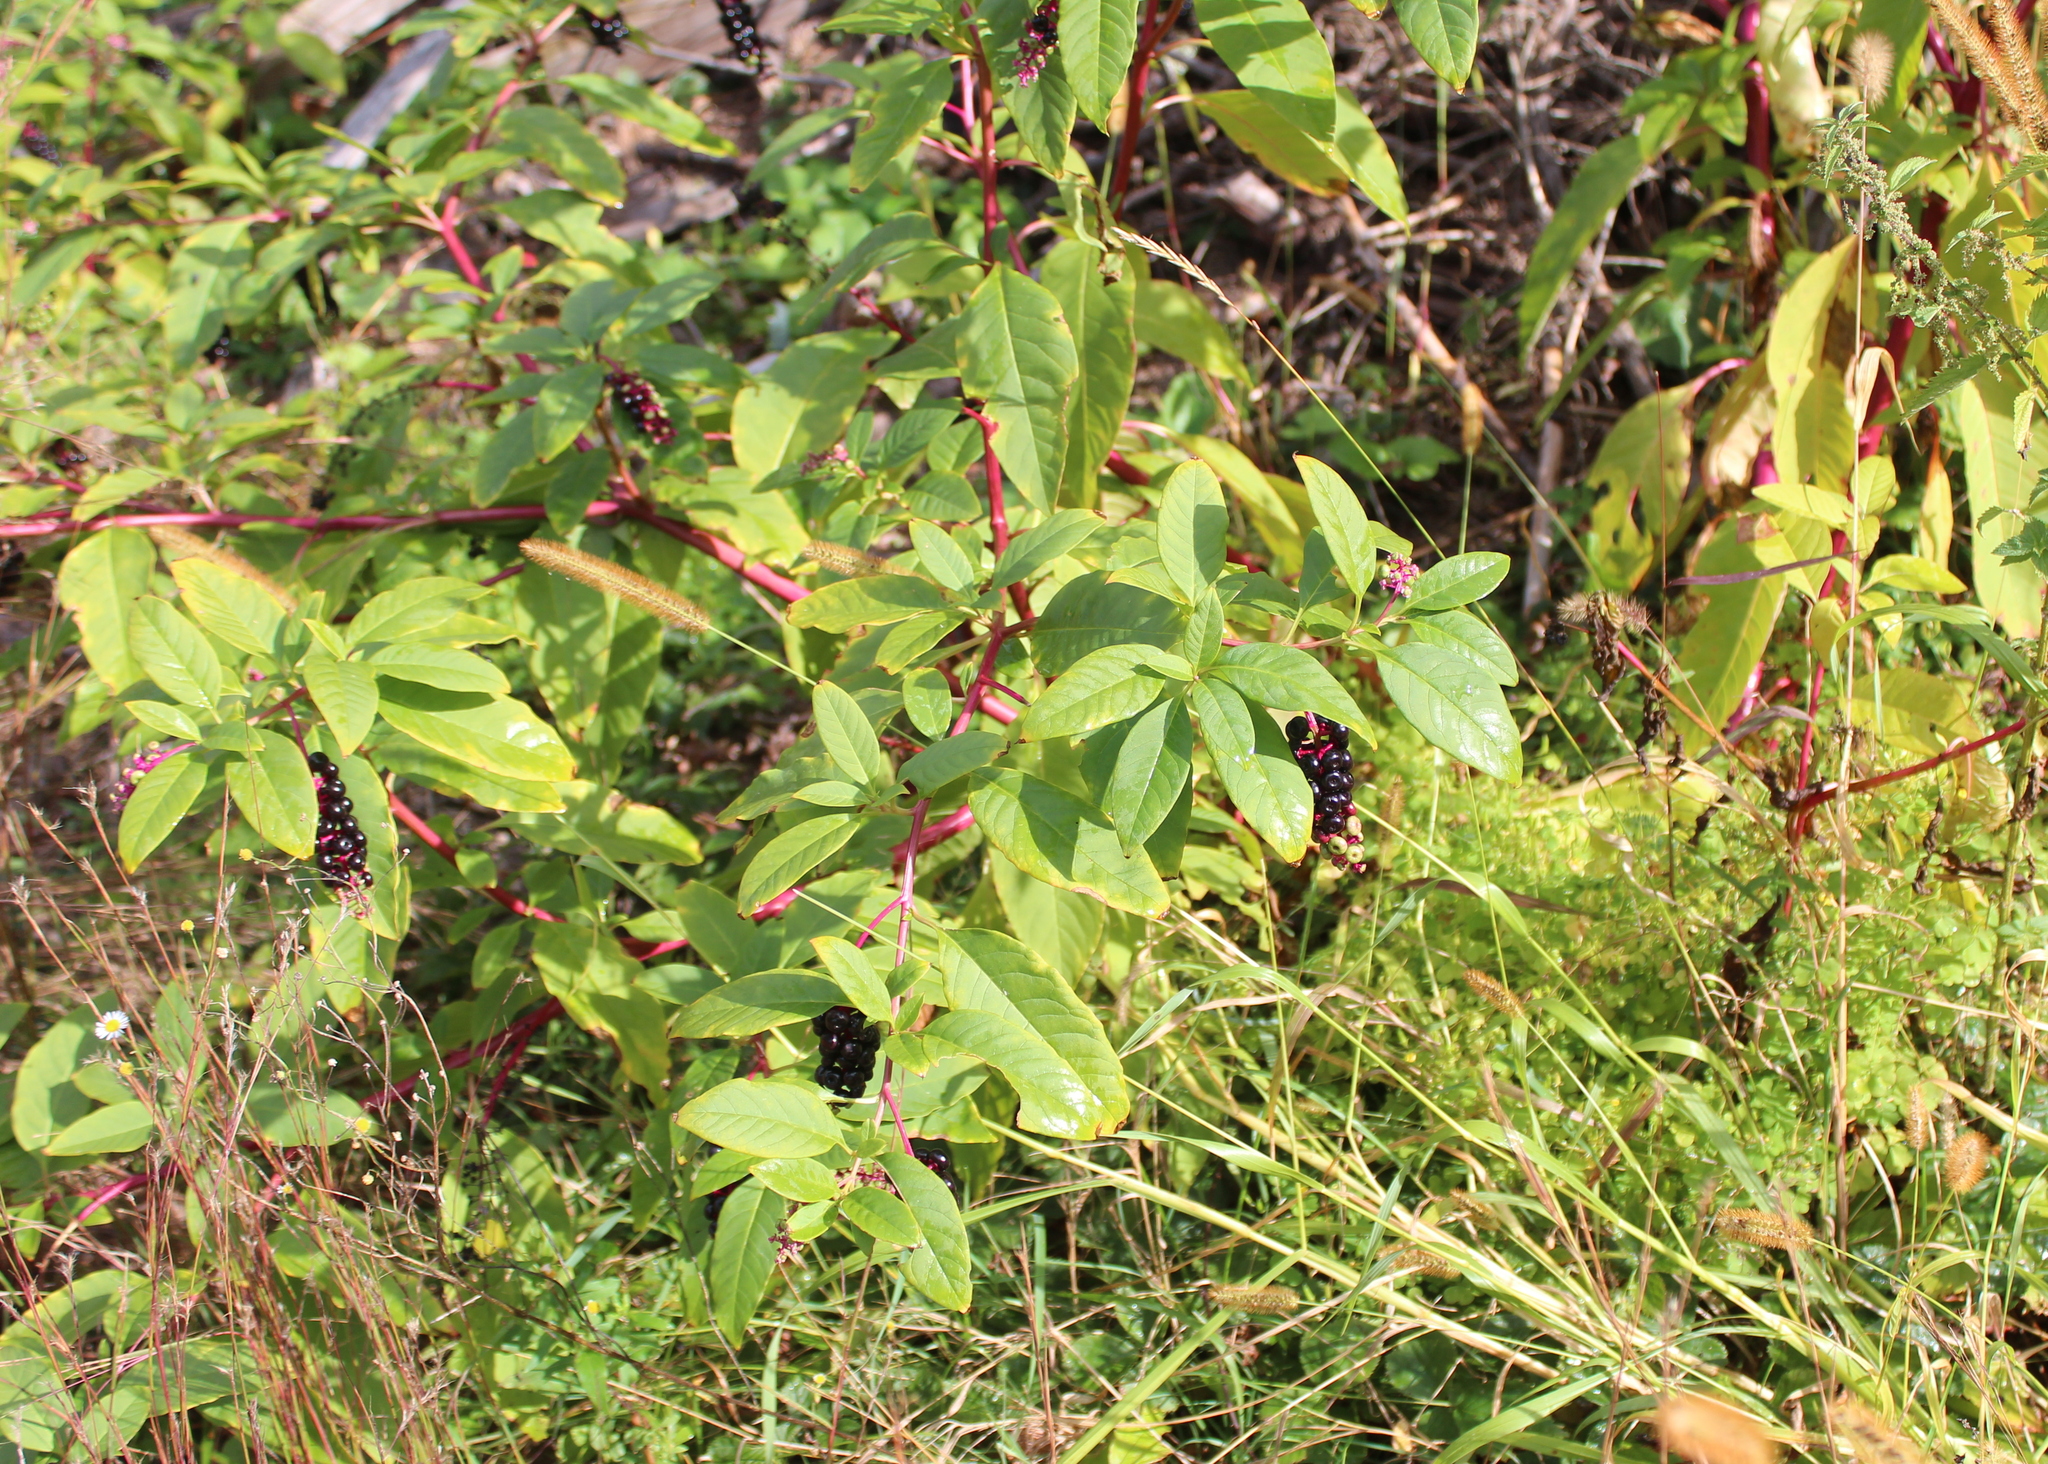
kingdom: Plantae
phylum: Tracheophyta
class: Magnoliopsida
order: Caryophyllales
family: Phytolaccaceae
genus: Phytolacca
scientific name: Phytolacca americana
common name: American pokeweed
